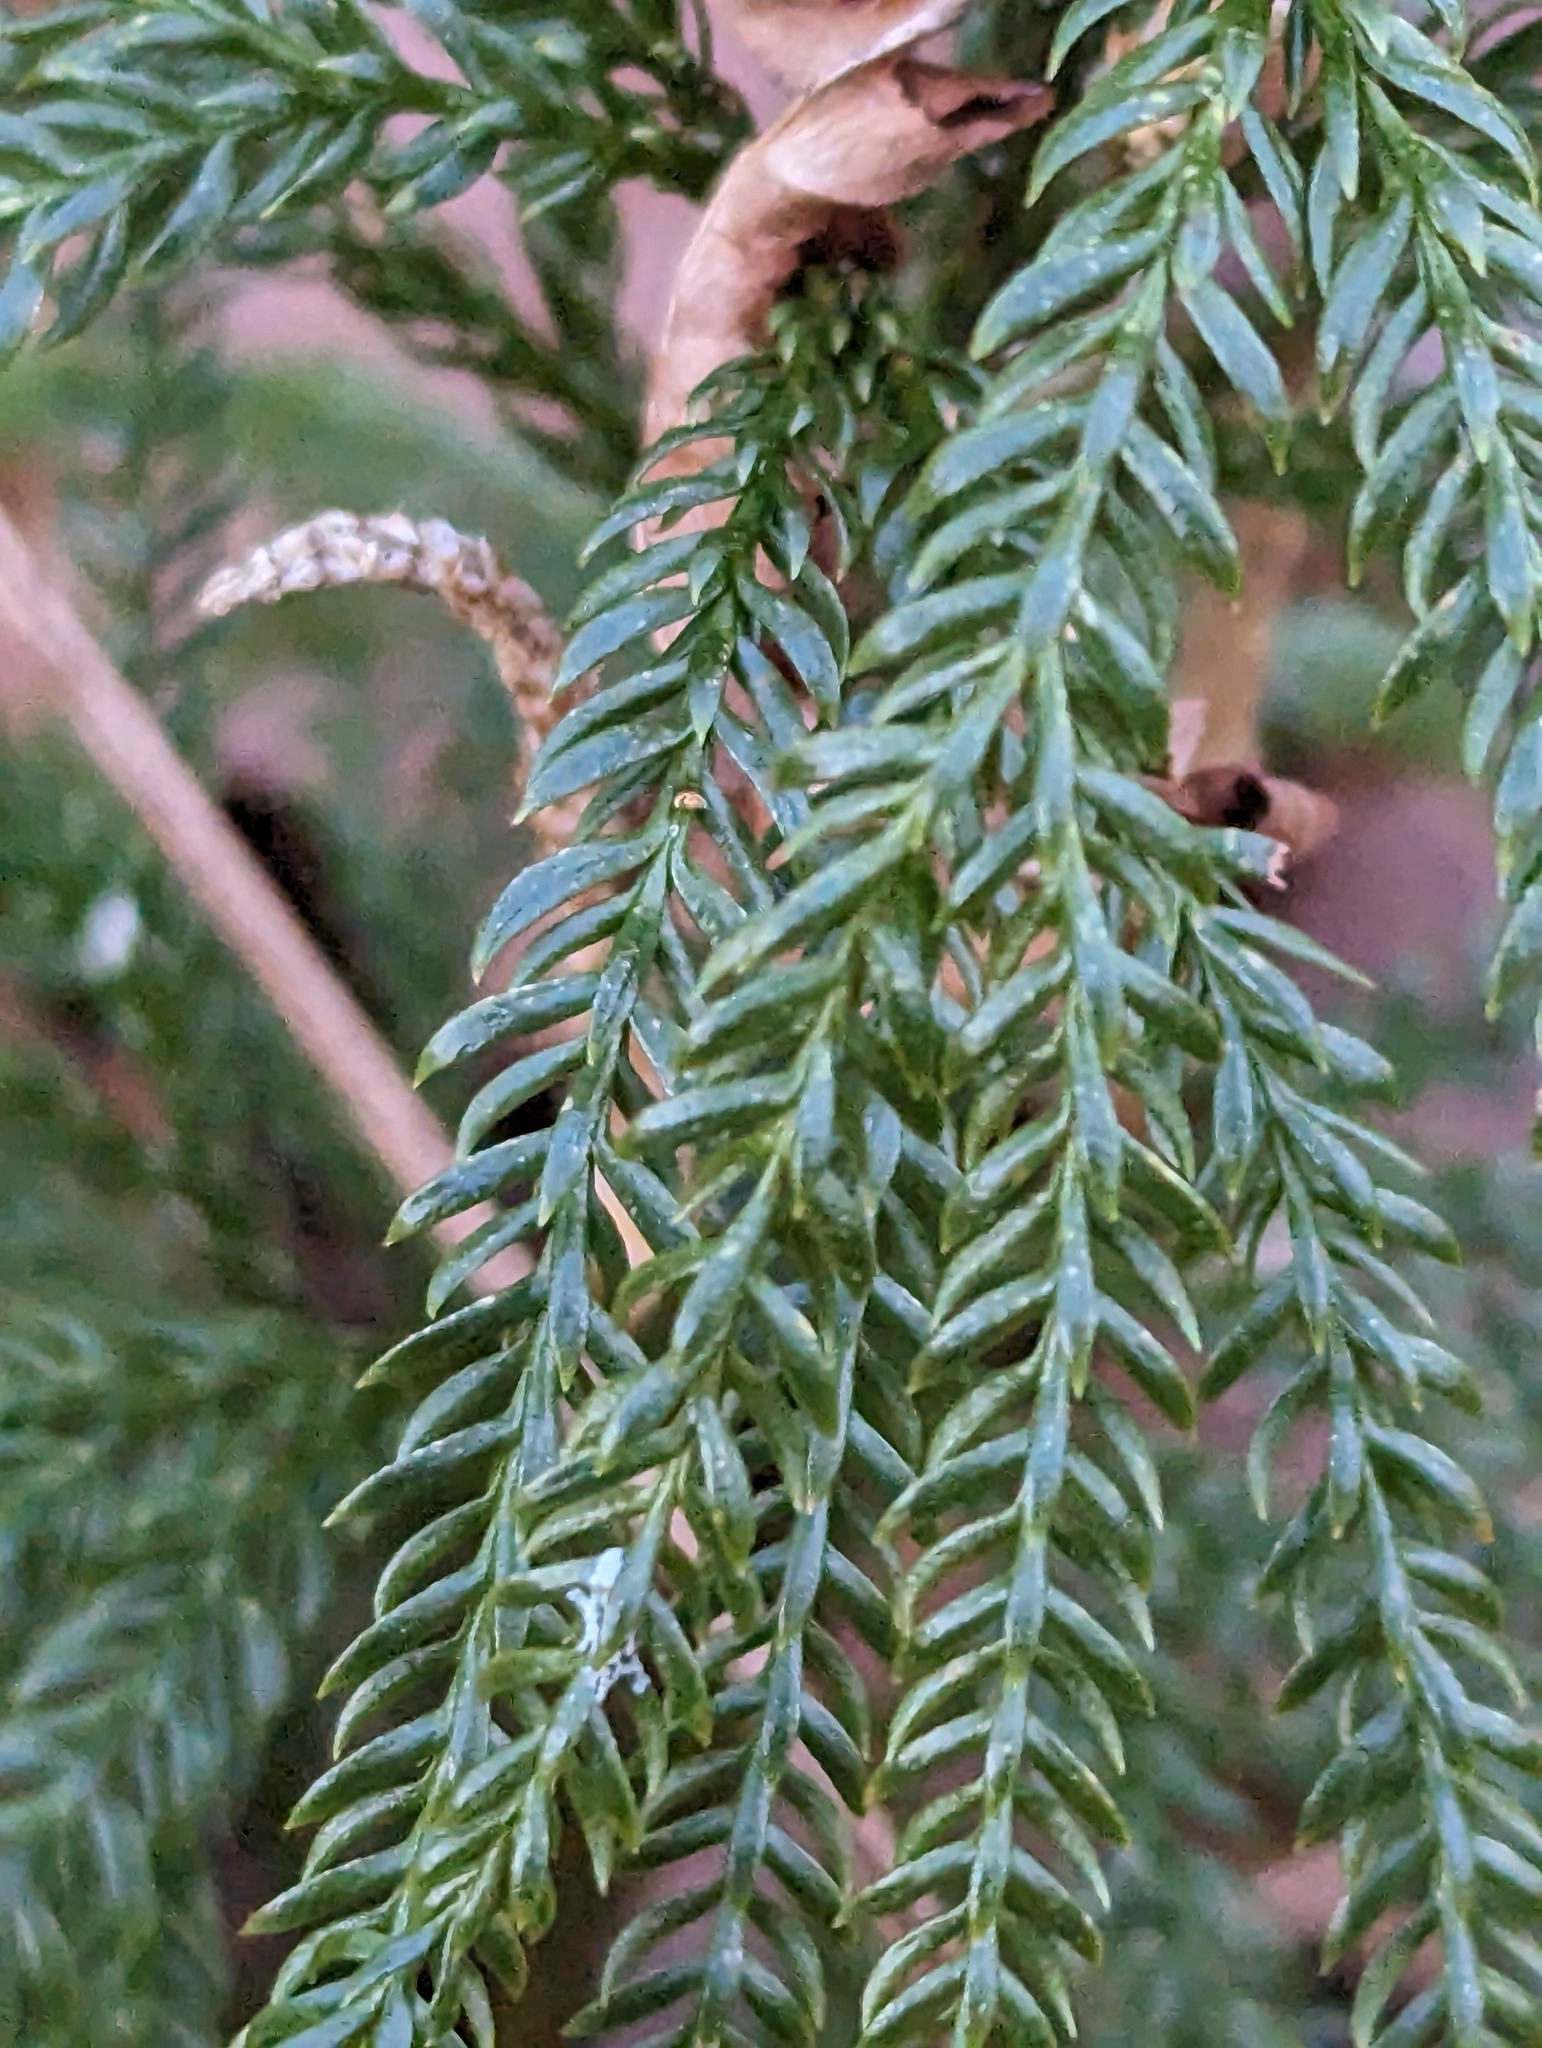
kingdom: Plantae
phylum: Tracheophyta
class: Lycopodiopsida
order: Lycopodiales
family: Lycopodiaceae
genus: Dendrolycopodium
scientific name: Dendrolycopodium obscurum
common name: Common ground-pine
